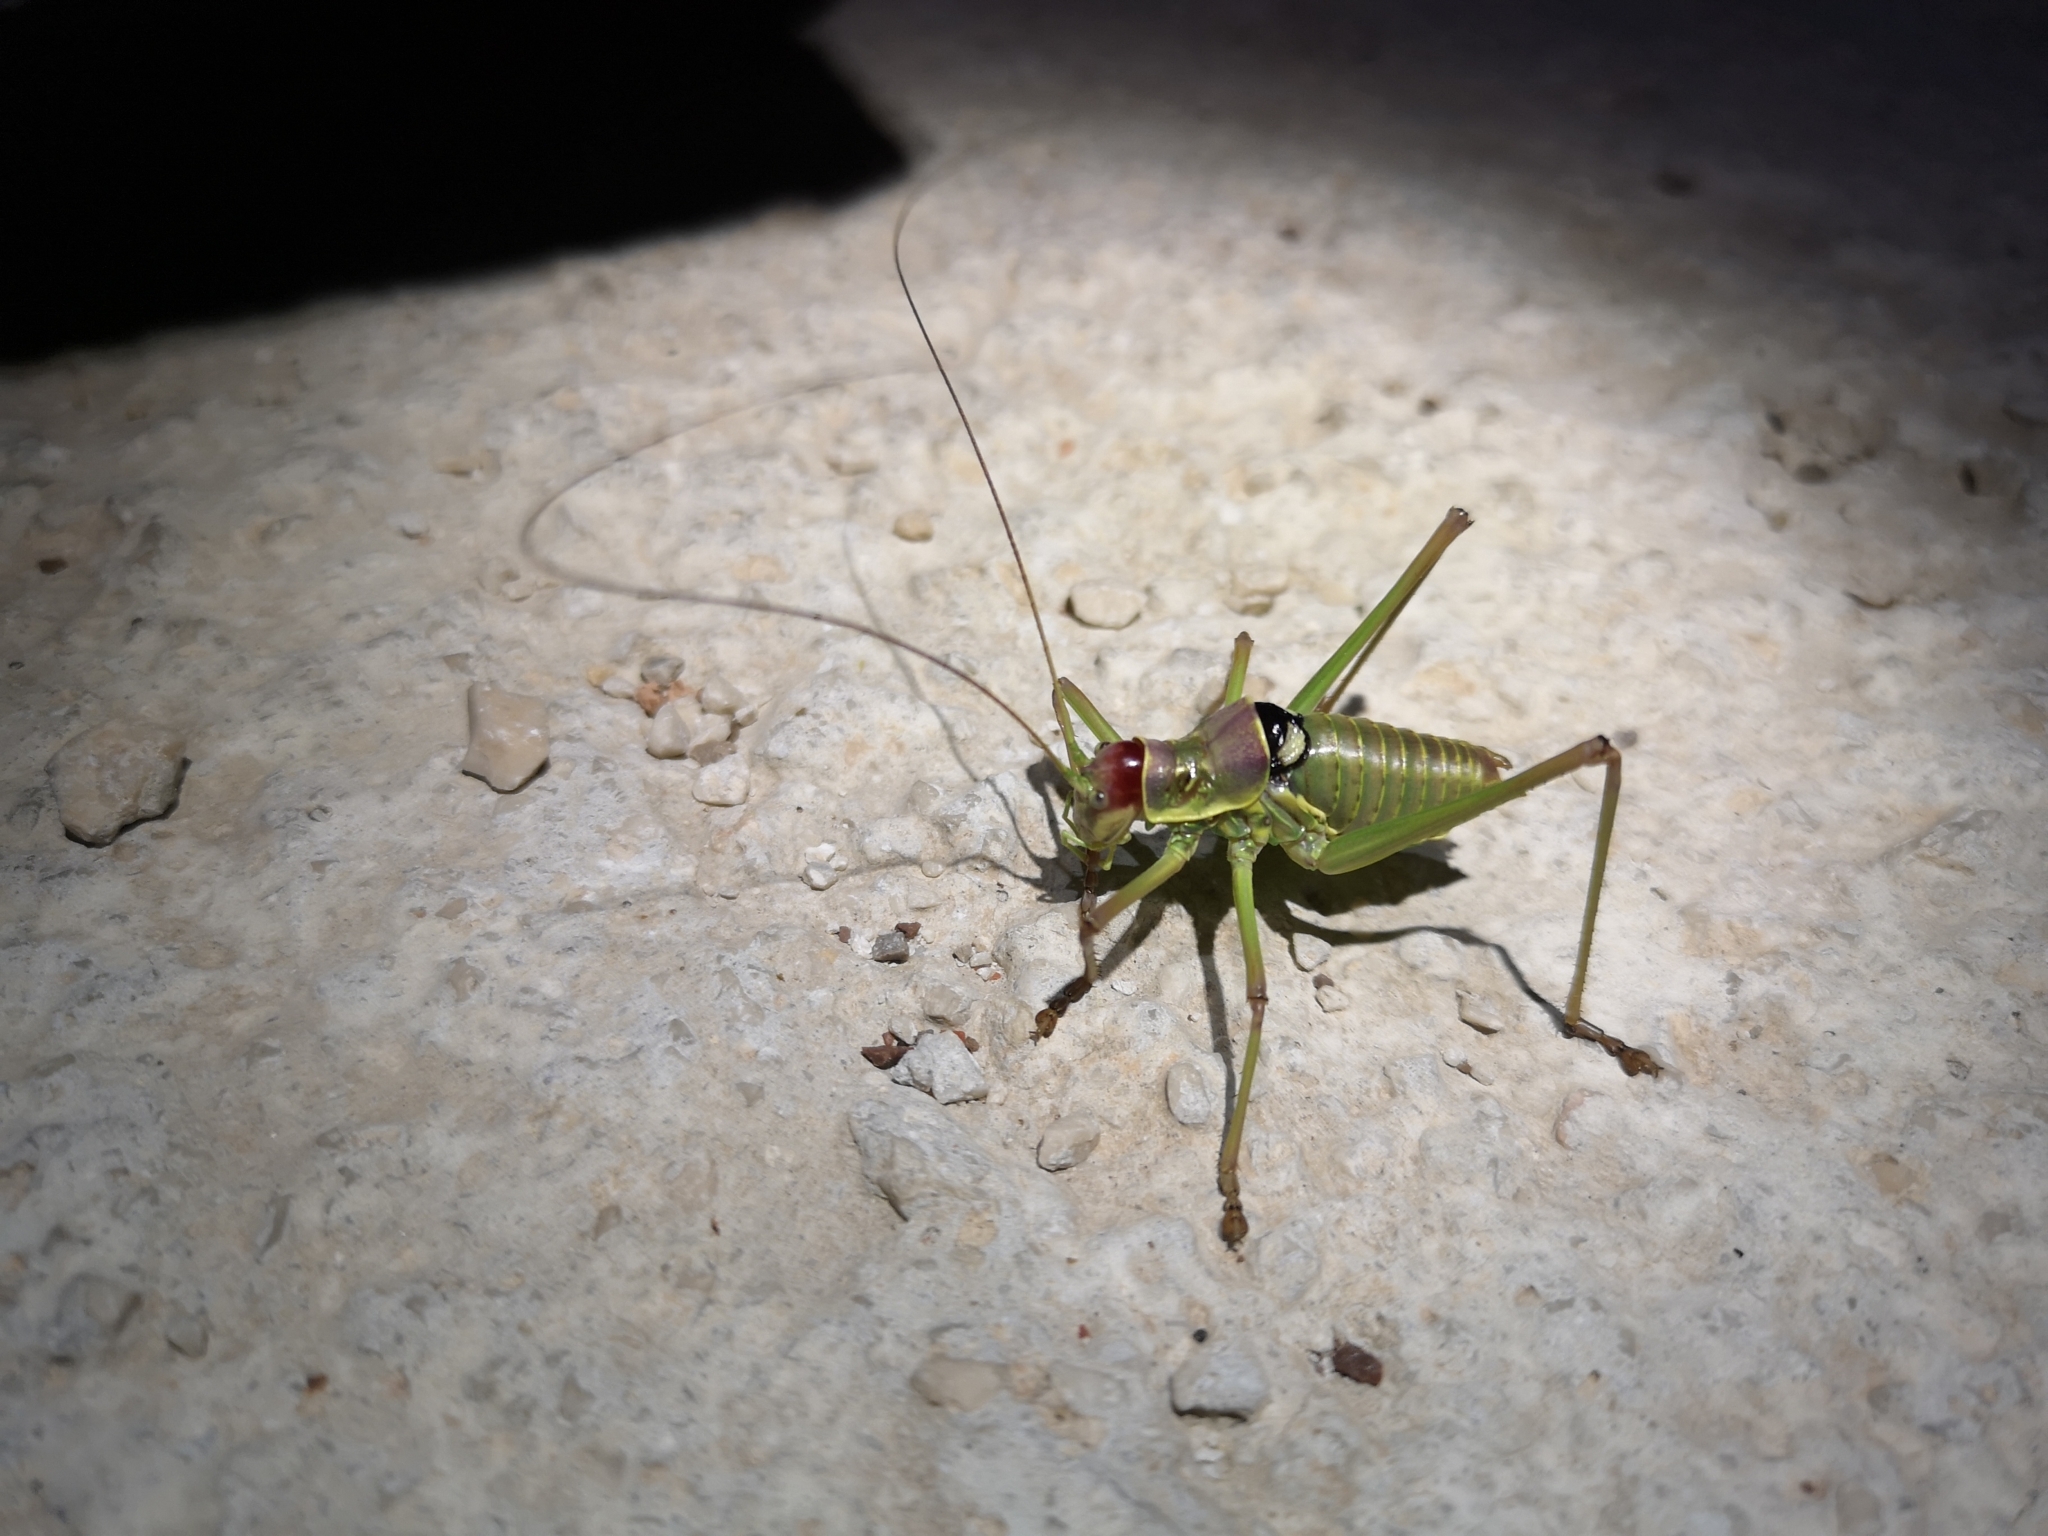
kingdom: Animalia
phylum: Arthropoda
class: Insecta
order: Orthoptera
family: Tettigoniidae
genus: Dinarippiger
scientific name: Dinarippiger discoidalis
